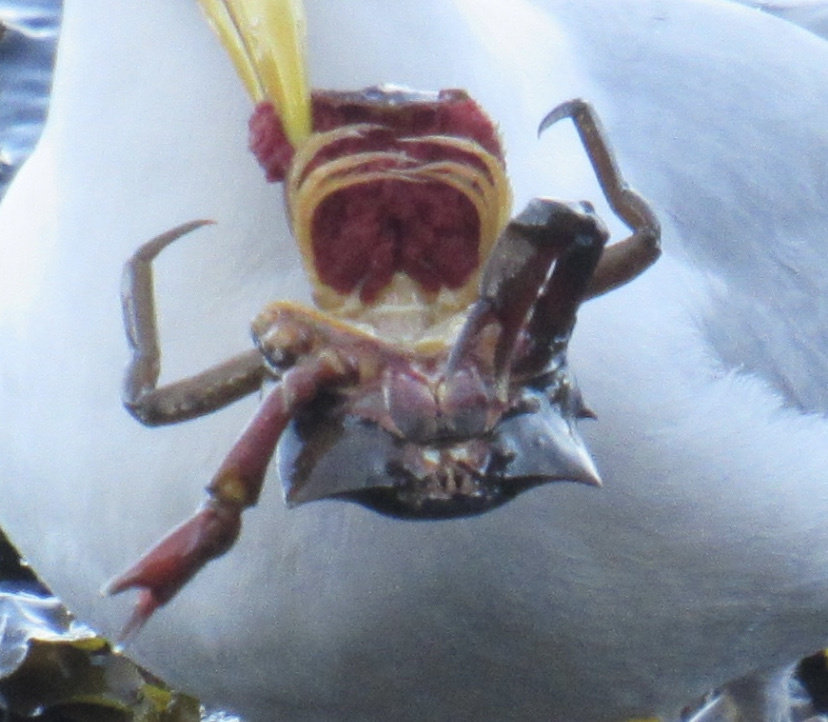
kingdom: Animalia
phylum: Arthropoda
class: Malacostraca
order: Decapoda
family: Epialtidae
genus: Pugettia
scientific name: Pugettia producta
